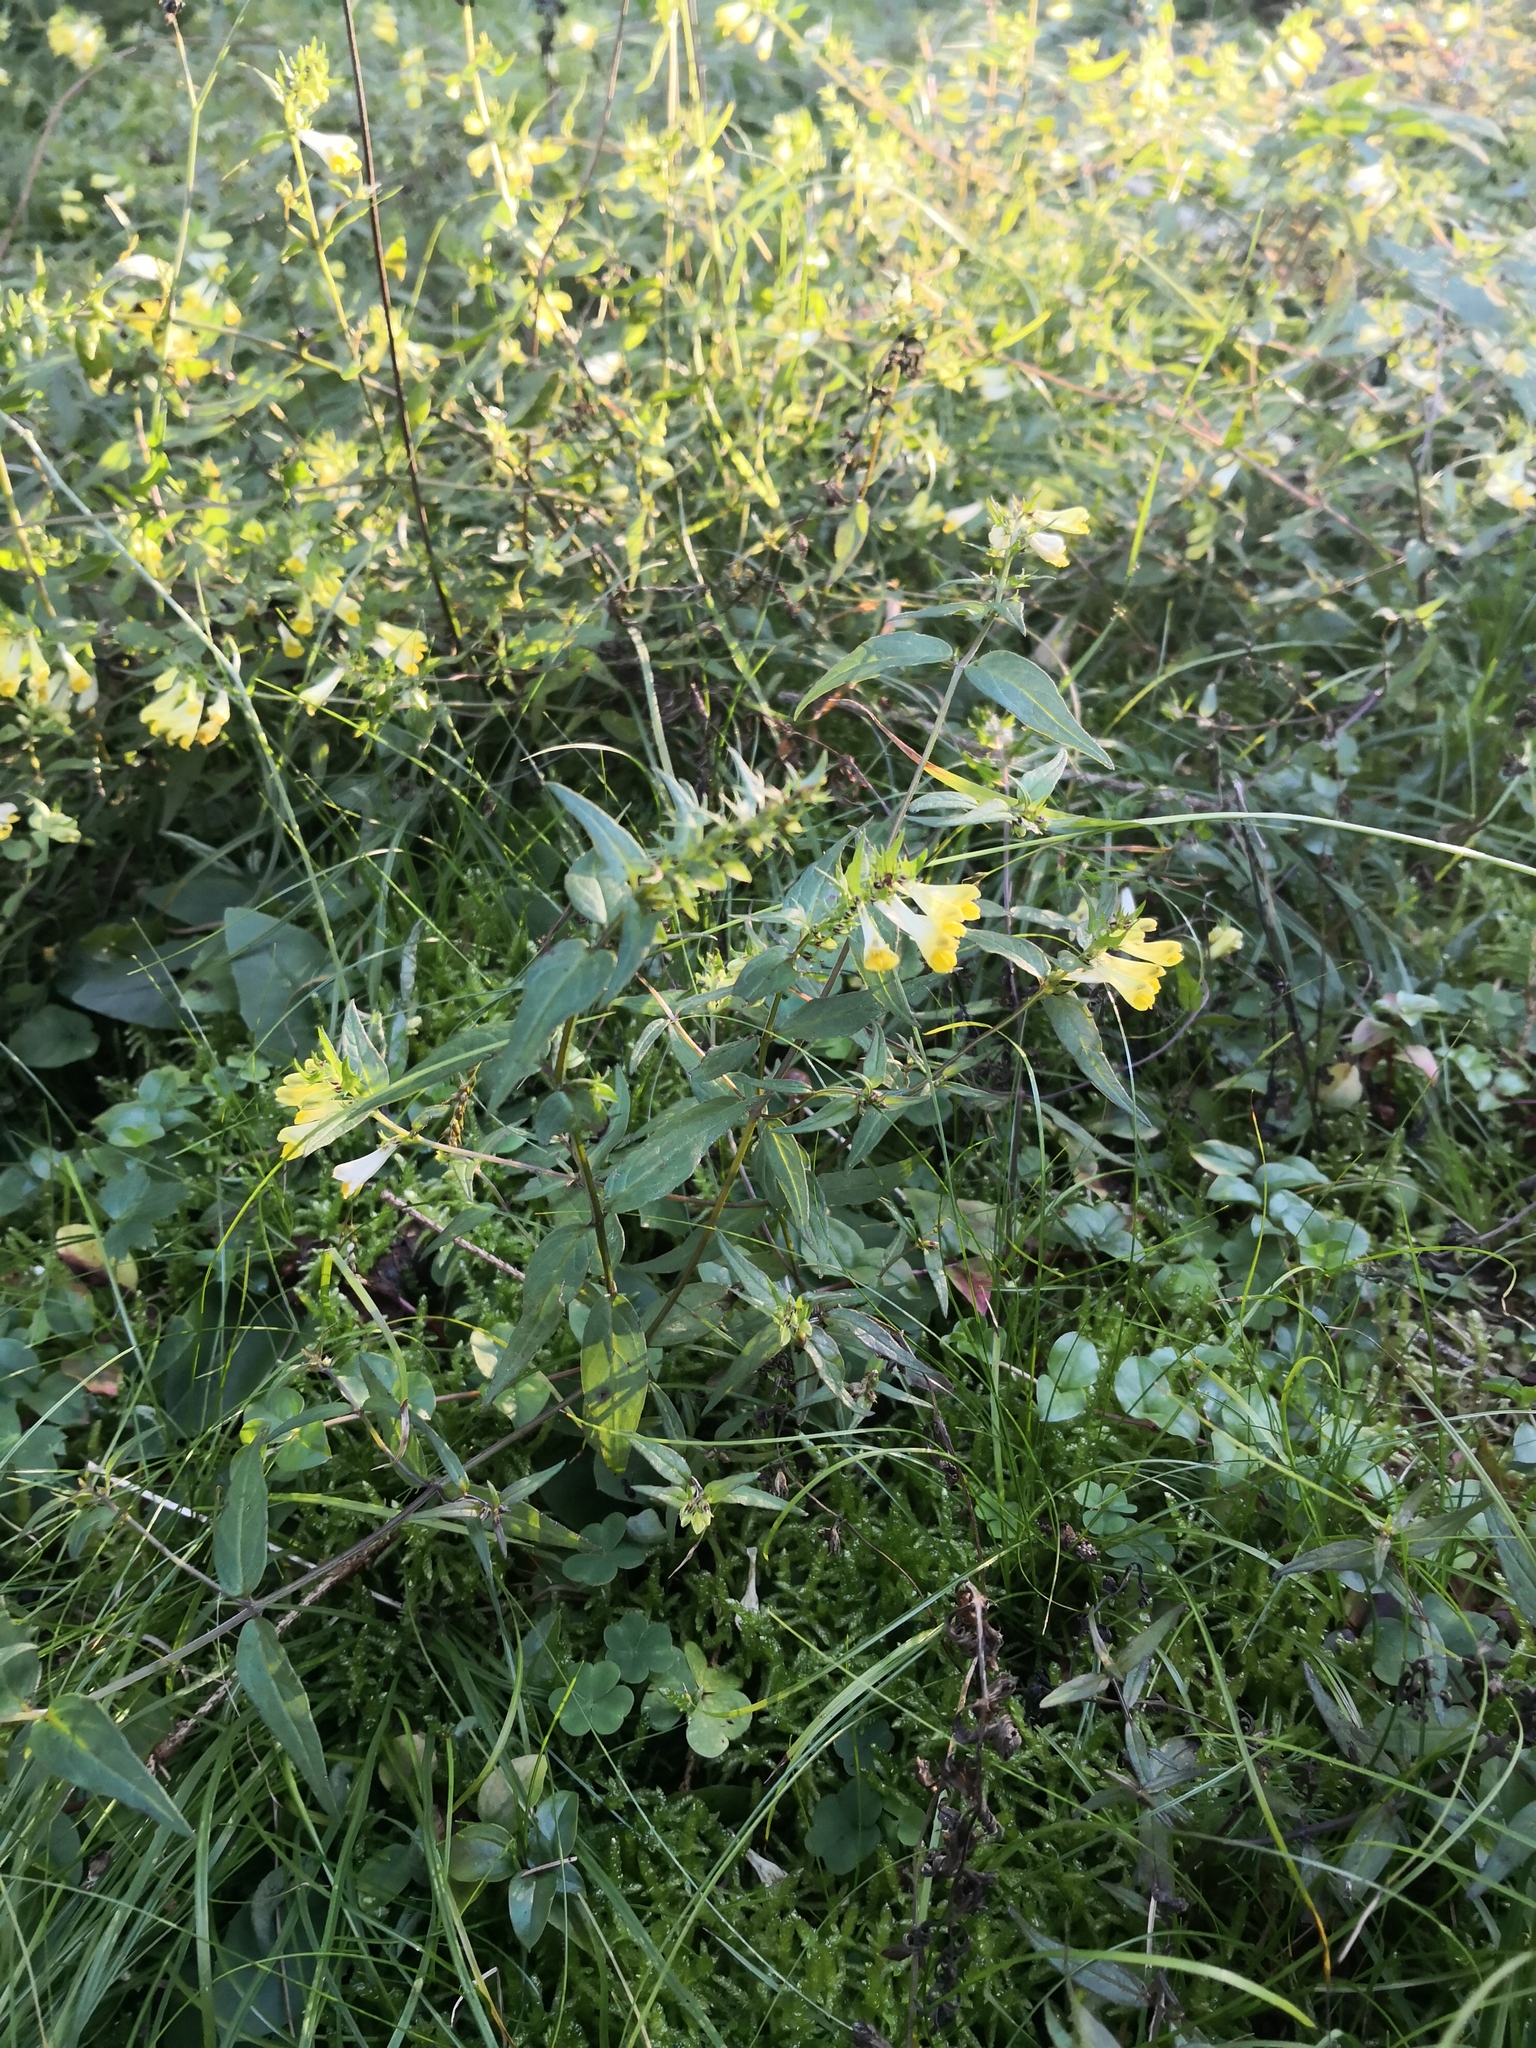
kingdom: Plantae
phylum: Tracheophyta
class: Magnoliopsida
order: Lamiales
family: Orobanchaceae
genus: Melampyrum
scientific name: Melampyrum pratense
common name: Common cow-wheat
